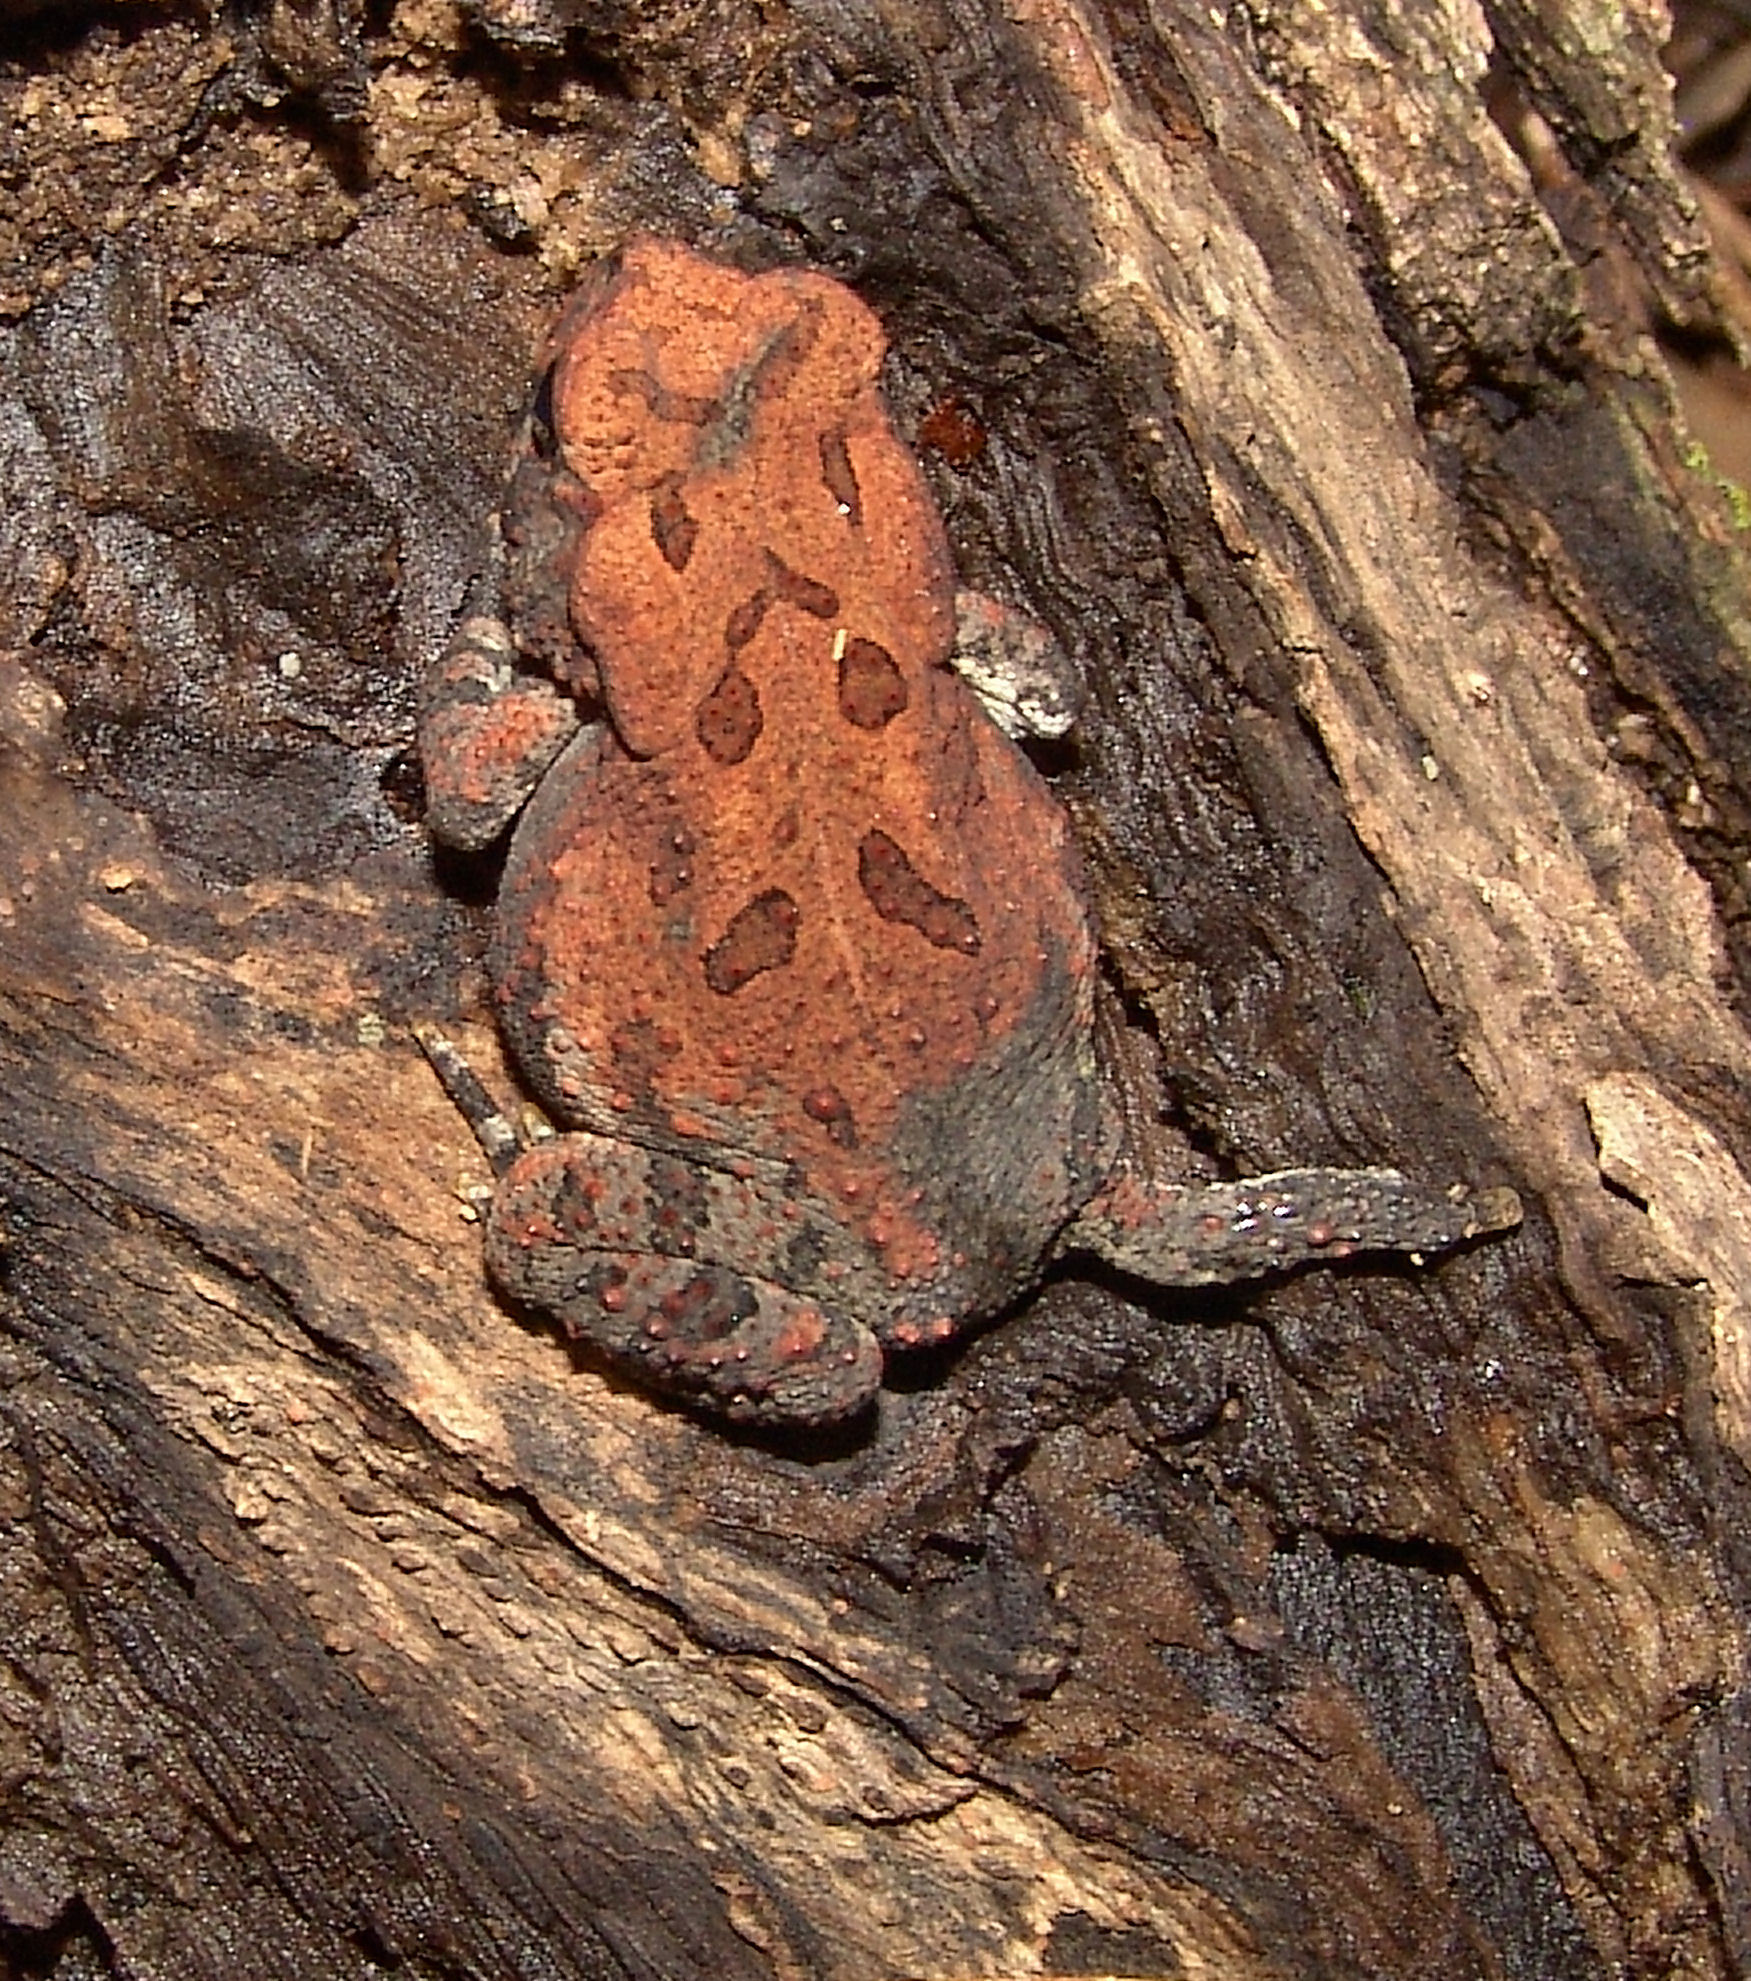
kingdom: Animalia
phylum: Chordata
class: Amphibia
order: Anura
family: Bufonidae
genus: Anaxyrus
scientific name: Anaxyrus fowleri
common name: Fowler's toad
